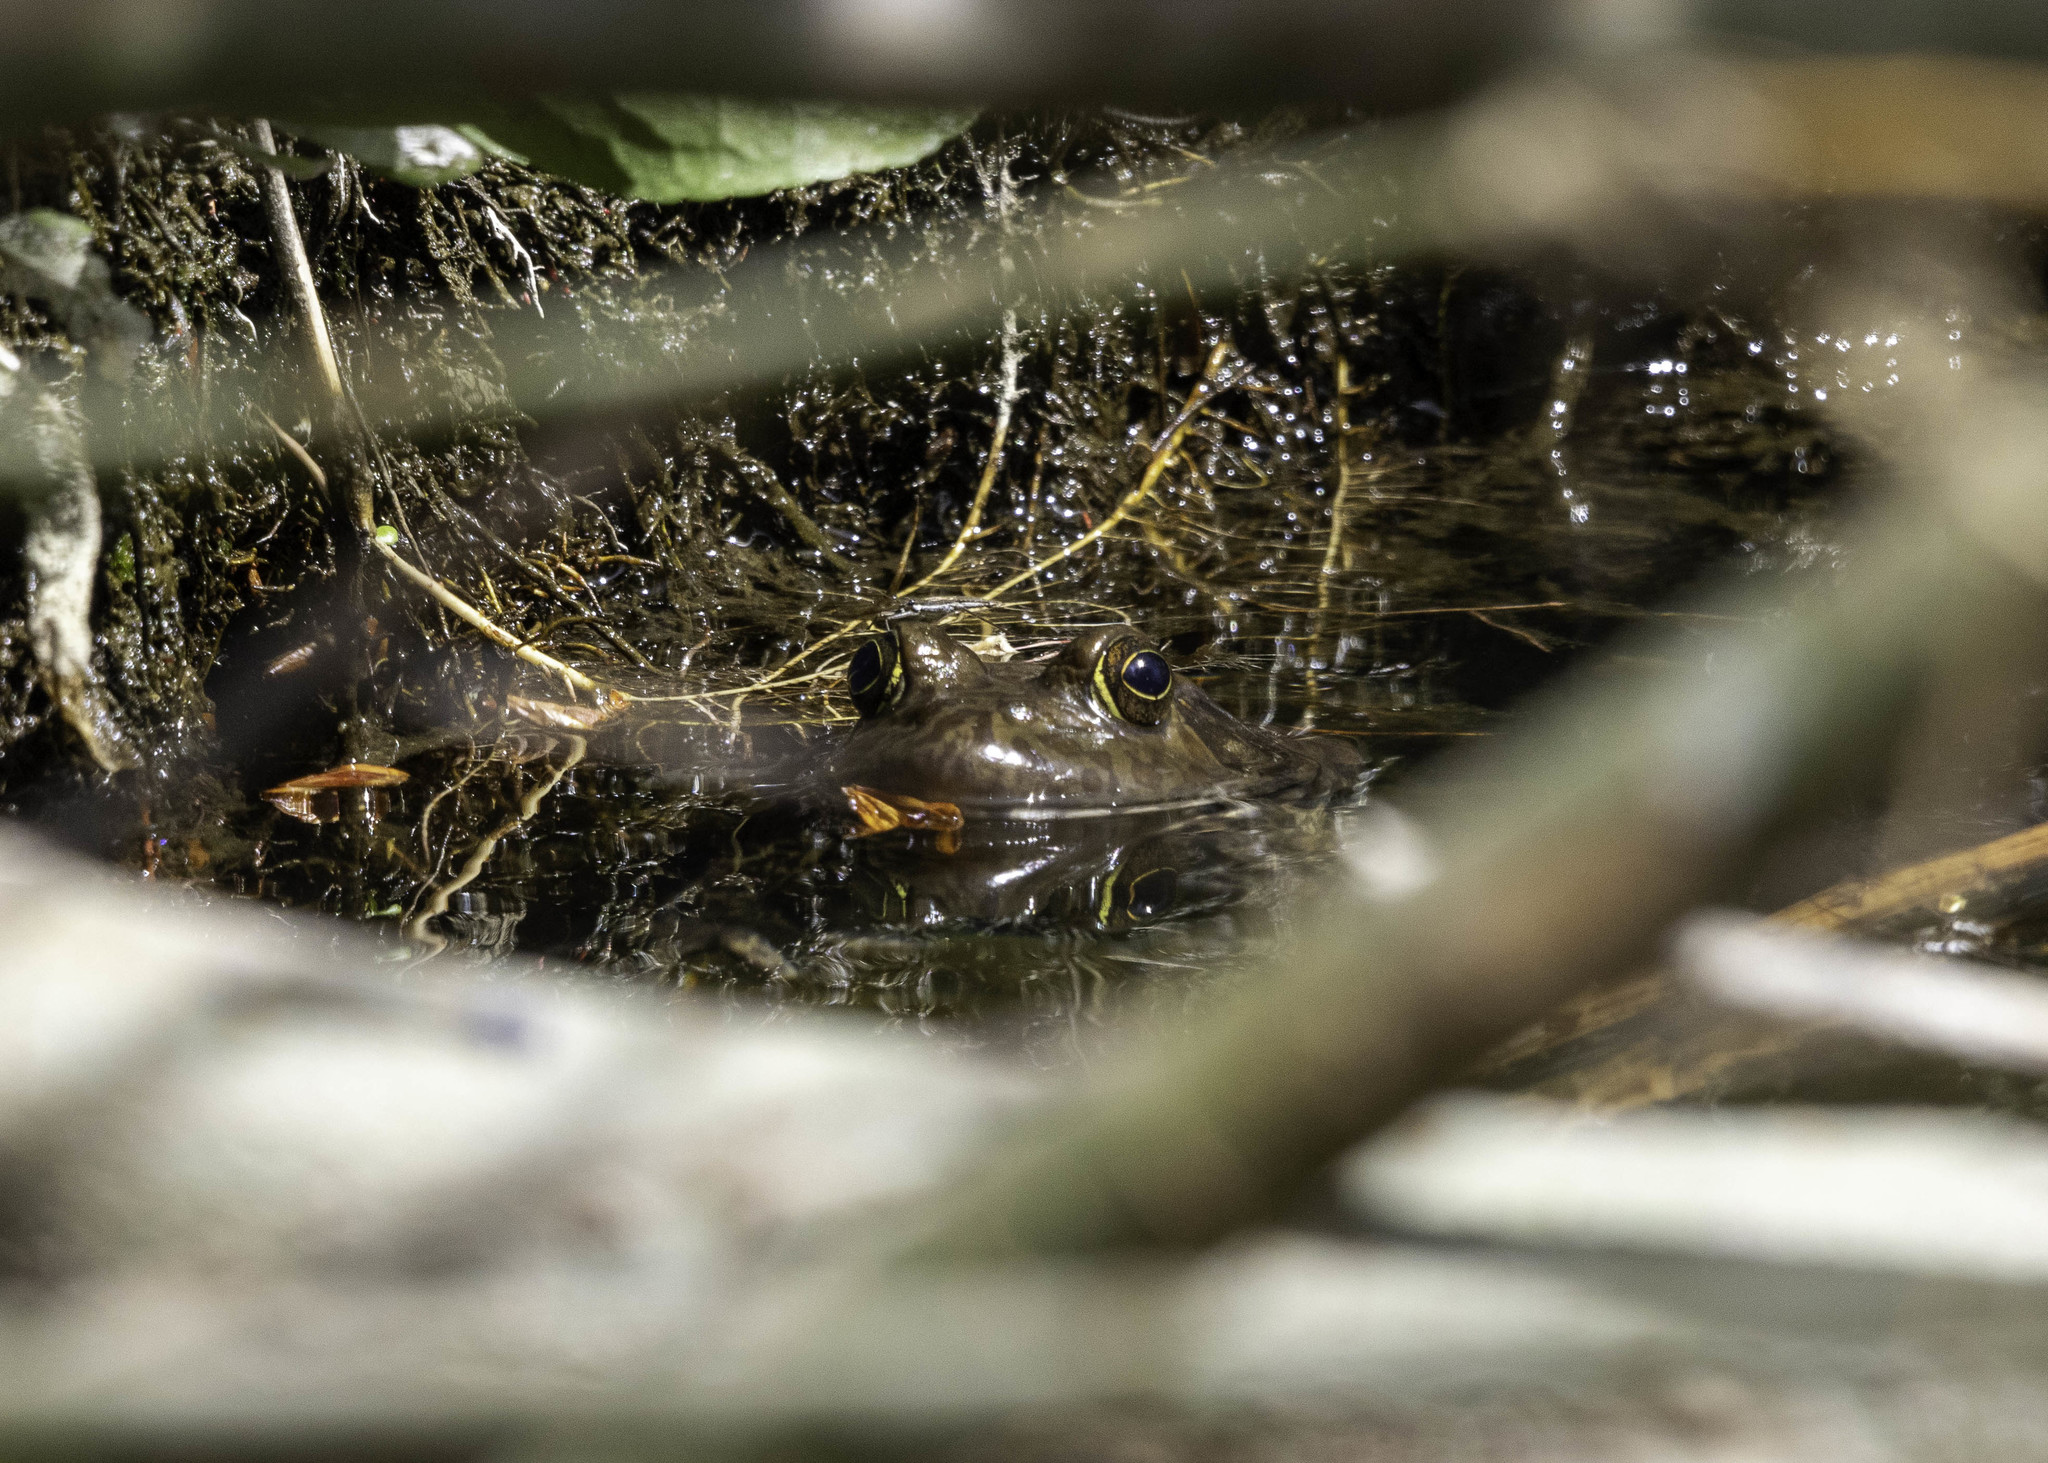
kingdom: Animalia
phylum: Chordata
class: Amphibia
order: Anura
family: Ranidae
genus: Lithobates
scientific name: Lithobates catesbeianus
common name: American bullfrog
